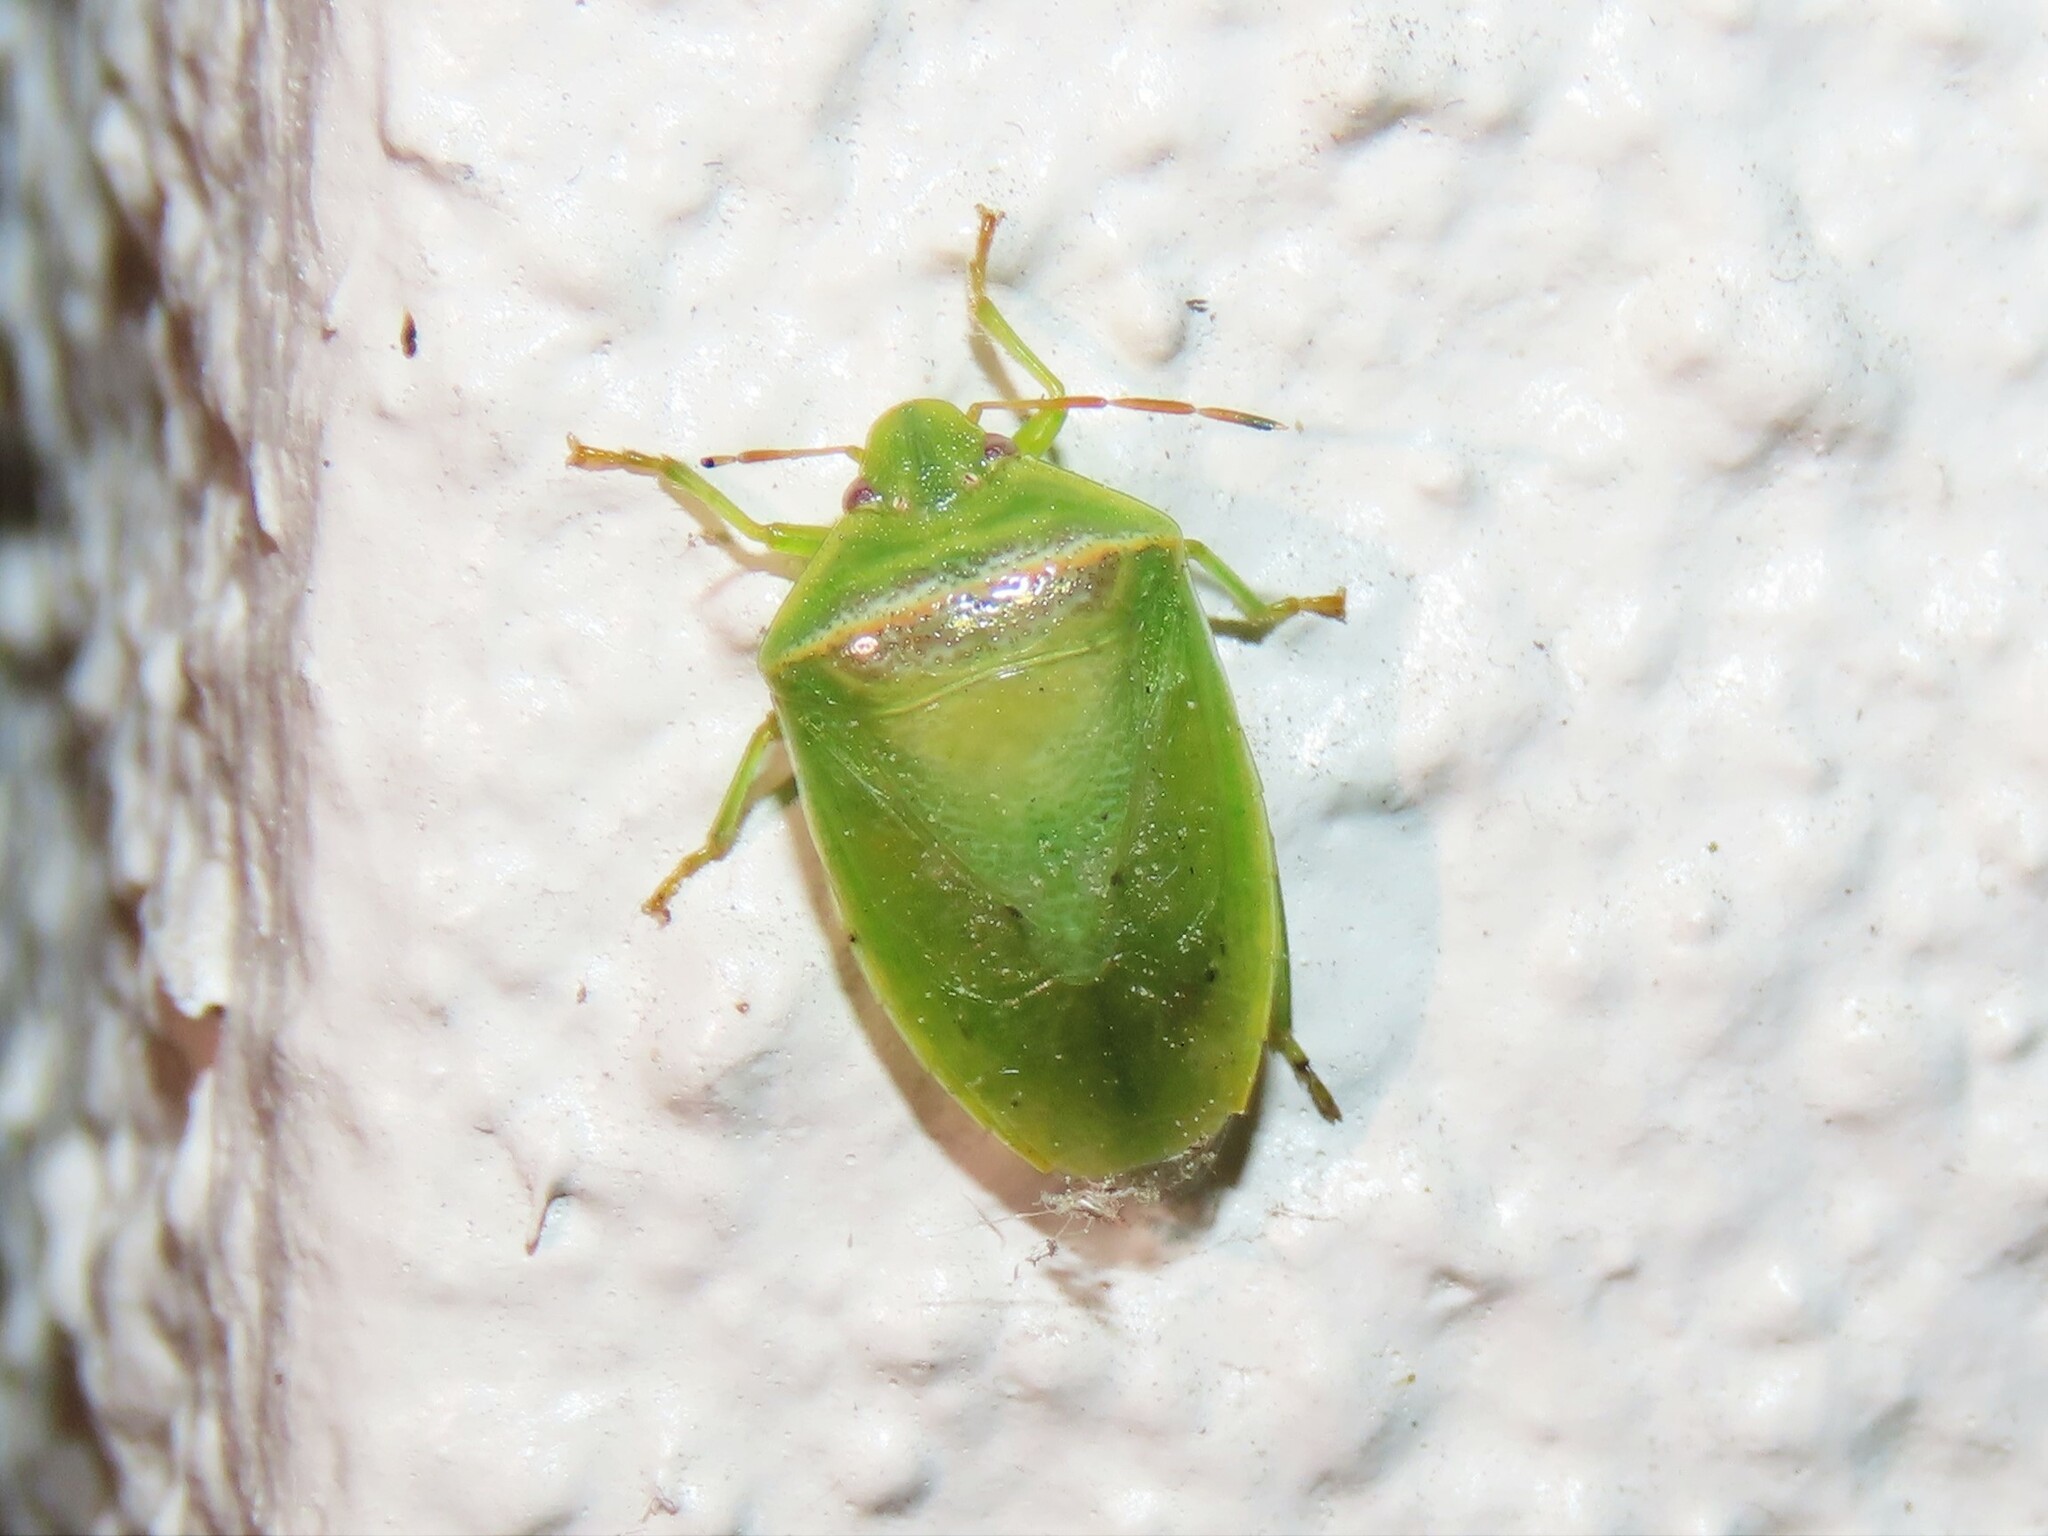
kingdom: Animalia
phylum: Arthropoda
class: Insecta
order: Hemiptera
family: Pentatomidae
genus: Piezodorus
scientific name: Piezodorus guildinii
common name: Redbanded stink bug
